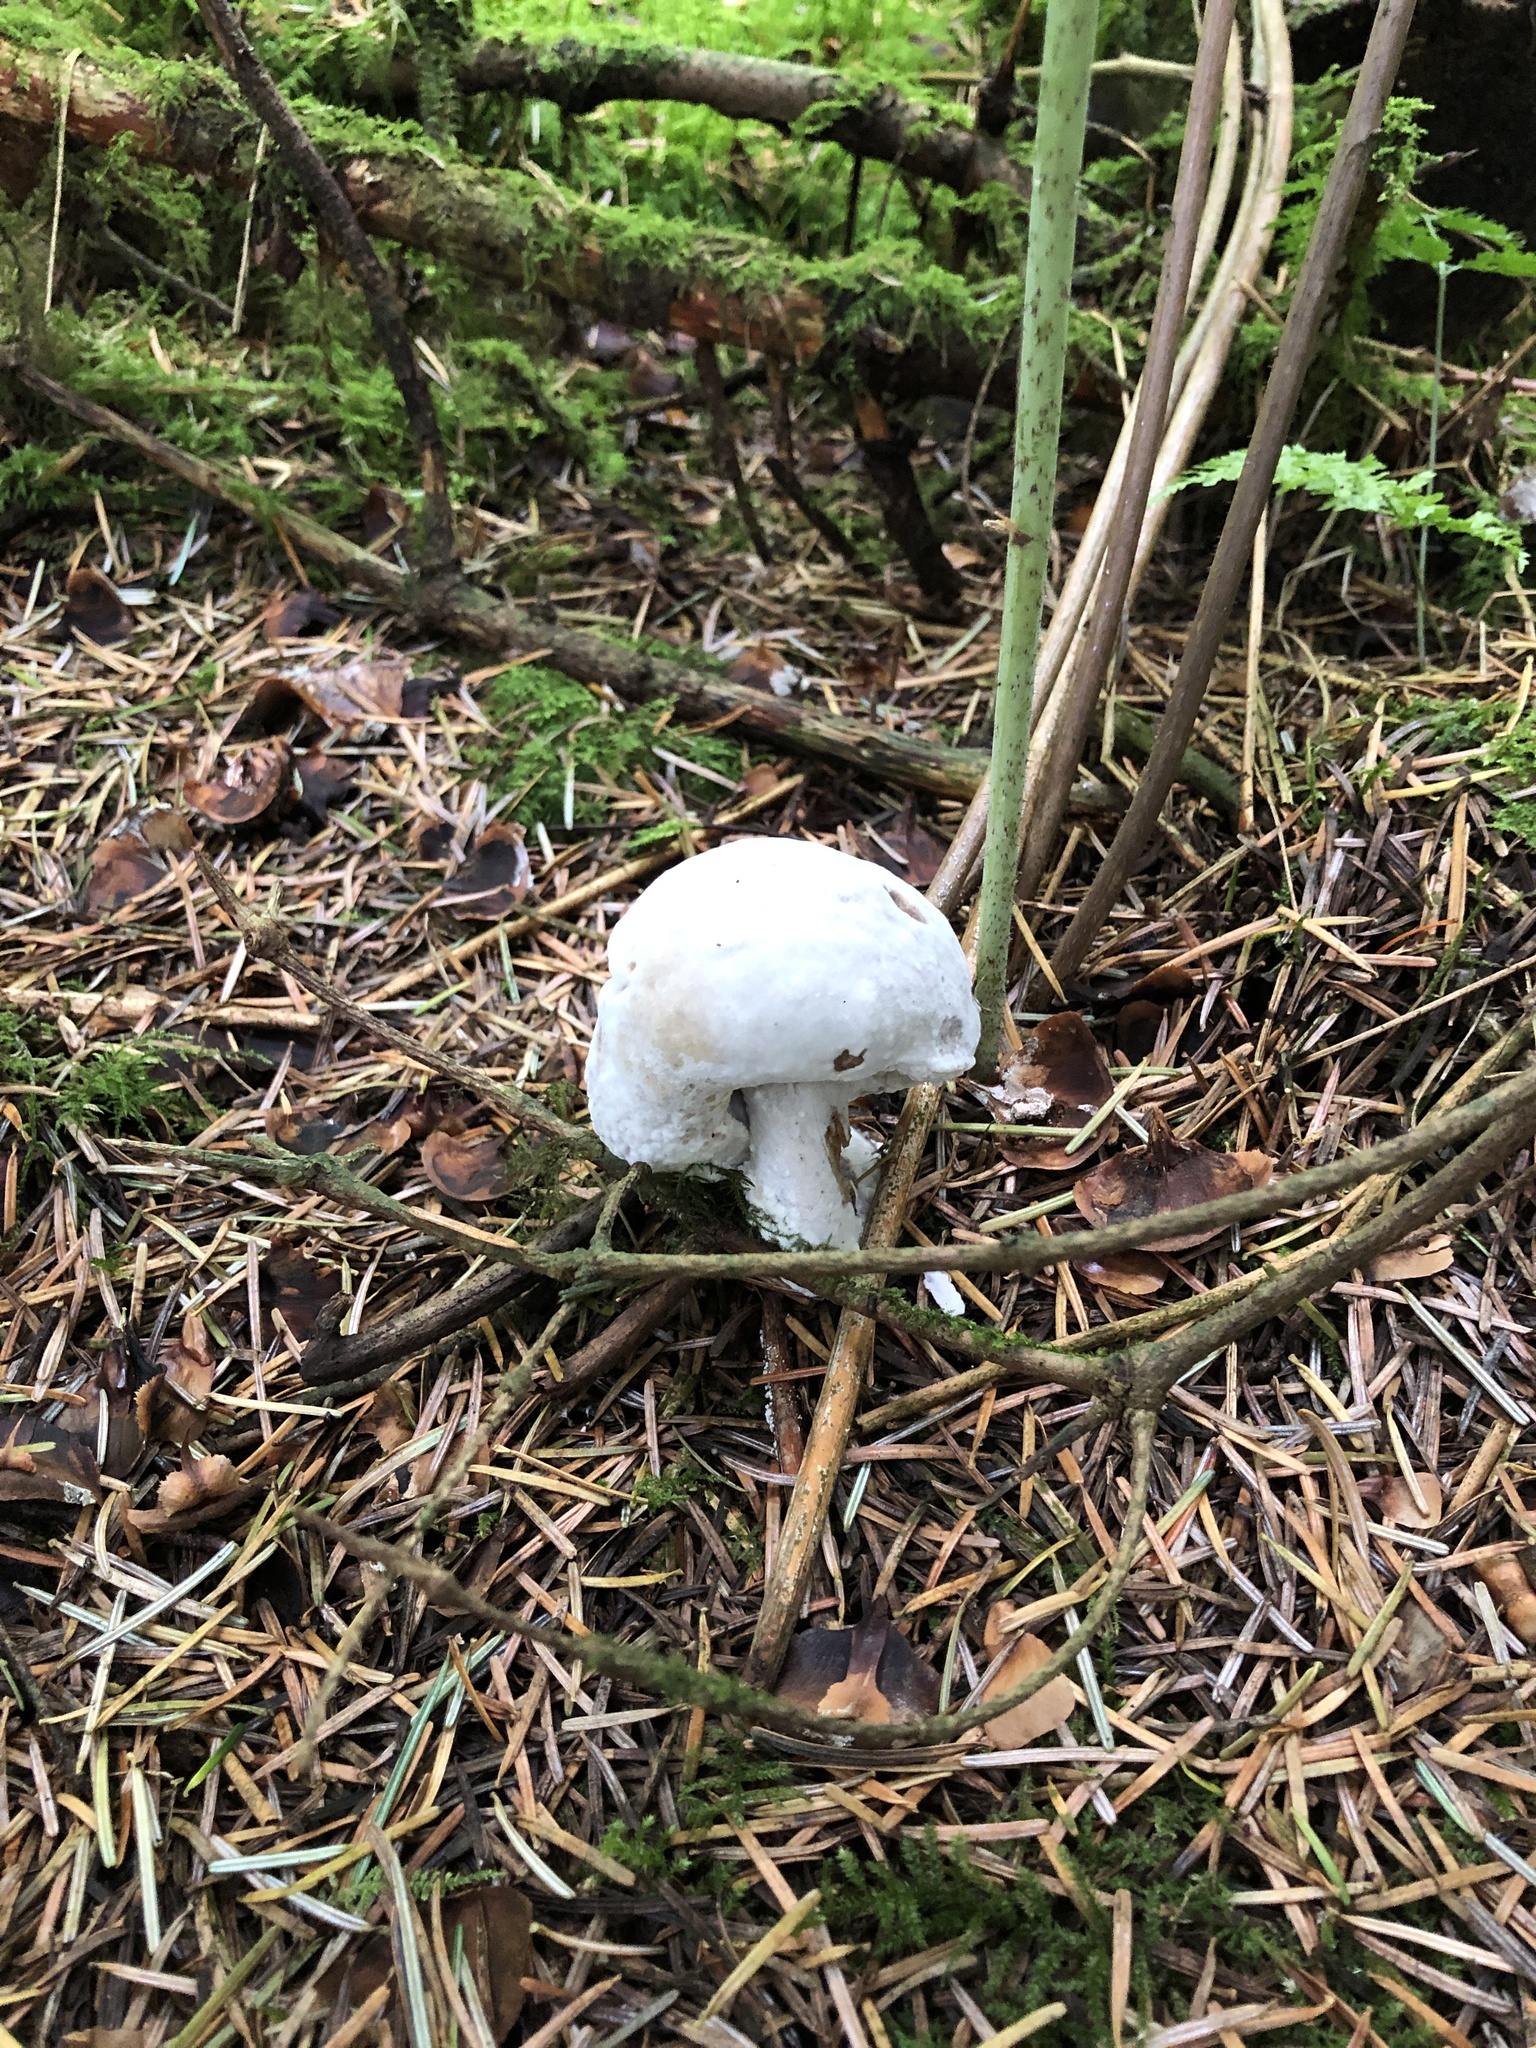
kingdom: Fungi
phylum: Ascomycota
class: Sordariomycetes
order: Hypocreales
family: Hypocreaceae
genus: Hypomyces
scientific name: Hypomyces chrysospermus
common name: Bolete mould
